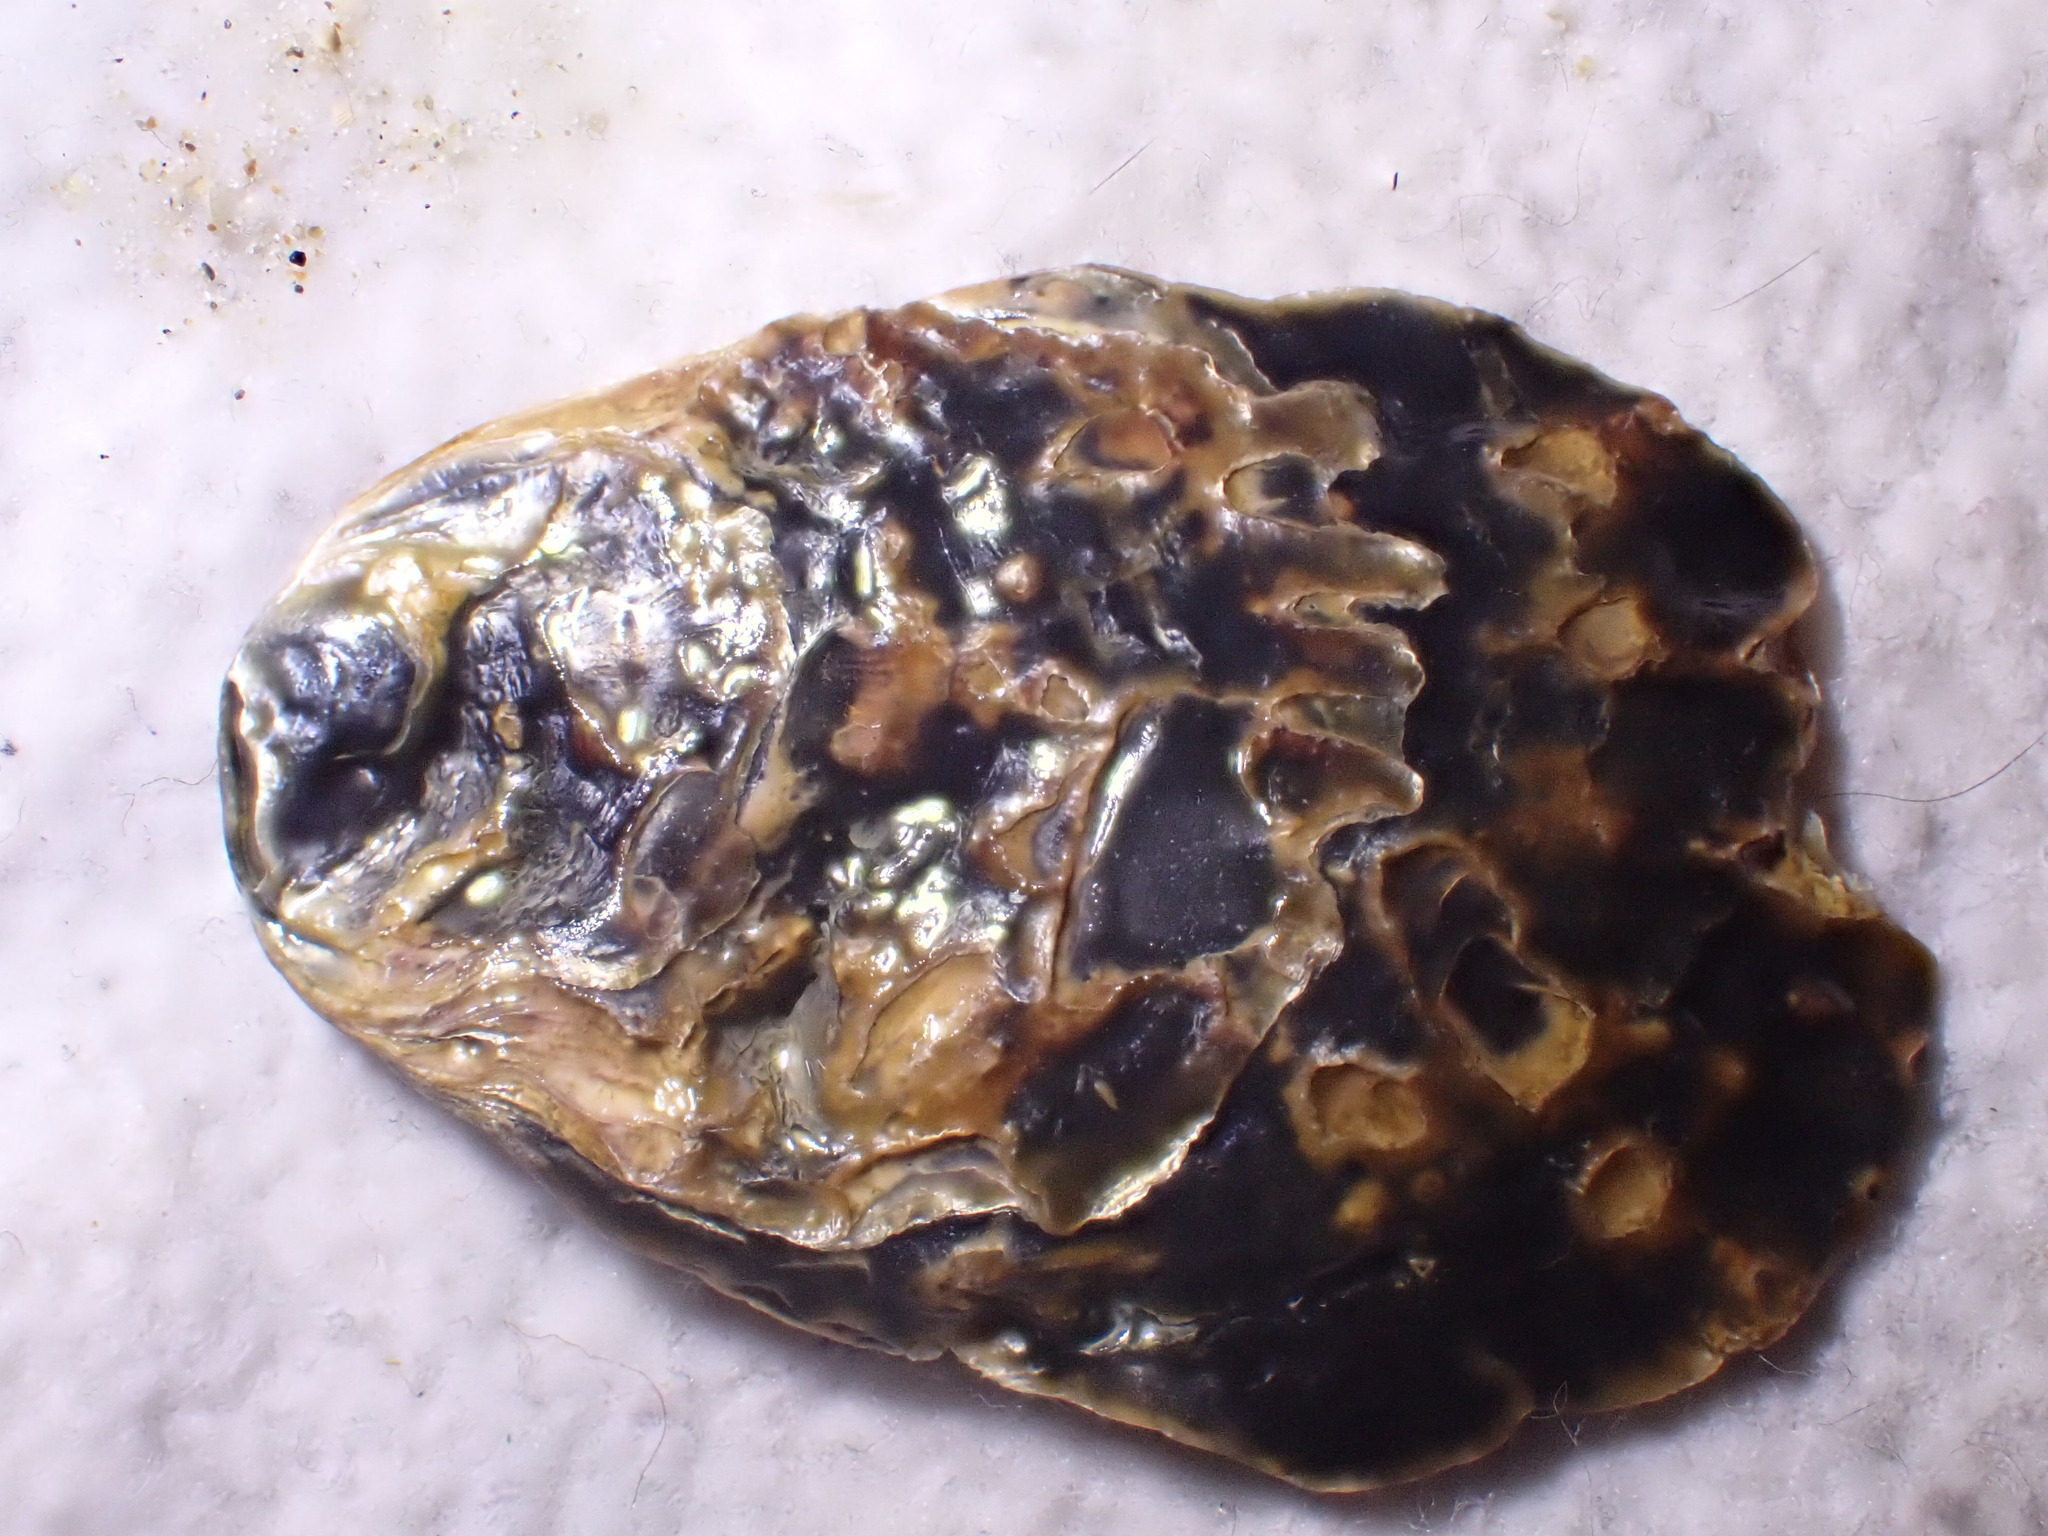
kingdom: Animalia
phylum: Mollusca
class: Bivalvia
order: Ostreida
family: Ostreidae
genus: Ostrea
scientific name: Ostrea edulis
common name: Flat oyster
